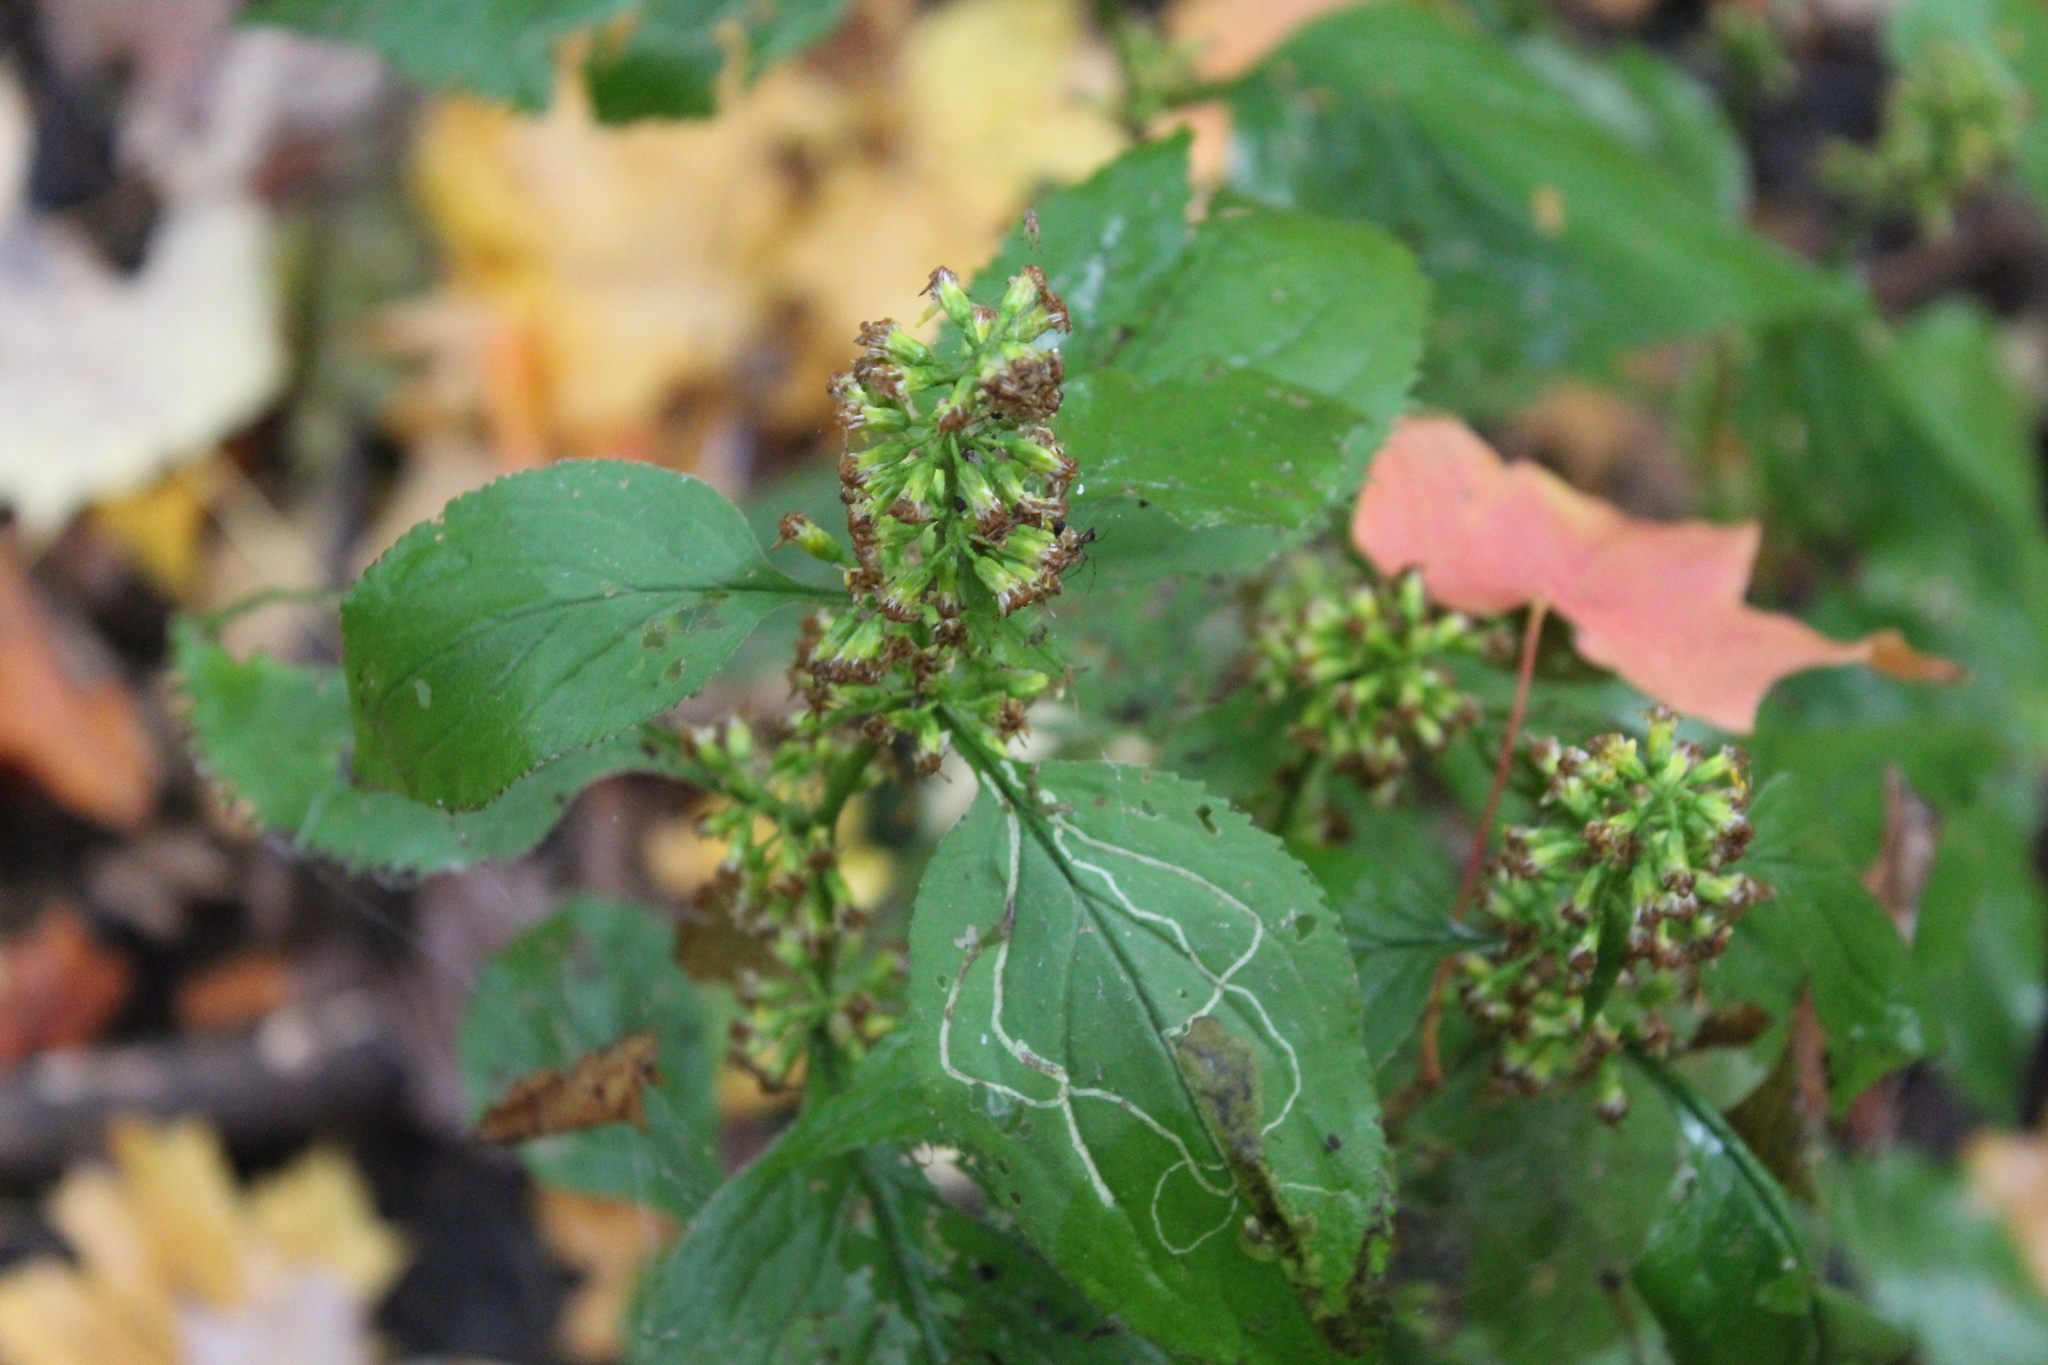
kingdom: Plantae
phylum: Tracheophyta
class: Magnoliopsida
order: Asterales
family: Asteraceae
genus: Solidago
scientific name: Solidago flexicaulis
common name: Zig-zag goldenrod
